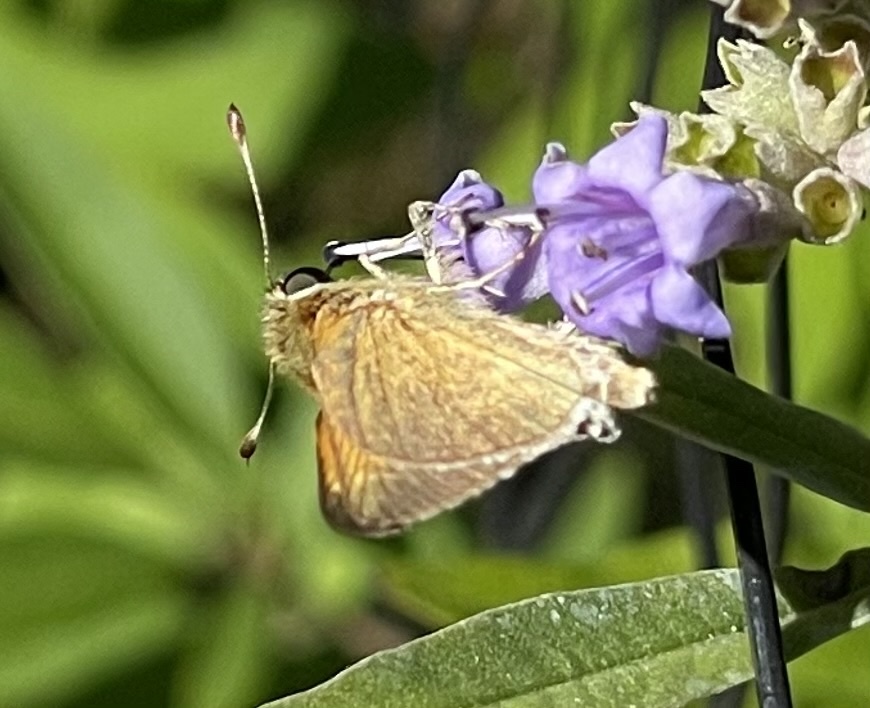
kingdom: Animalia
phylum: Arthropoda
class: Insecta
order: Lepidoptera
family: Hesperiidae
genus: Polites
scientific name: Polites themistocles
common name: Tawny-edged skipper
